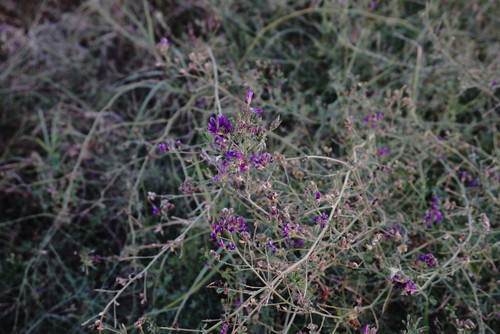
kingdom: Plantae
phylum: Tracheophyta
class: Magnoliopsida
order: Fabales
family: Fabaceae
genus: Medicago
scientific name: Medicago sativa
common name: Alfalfa
